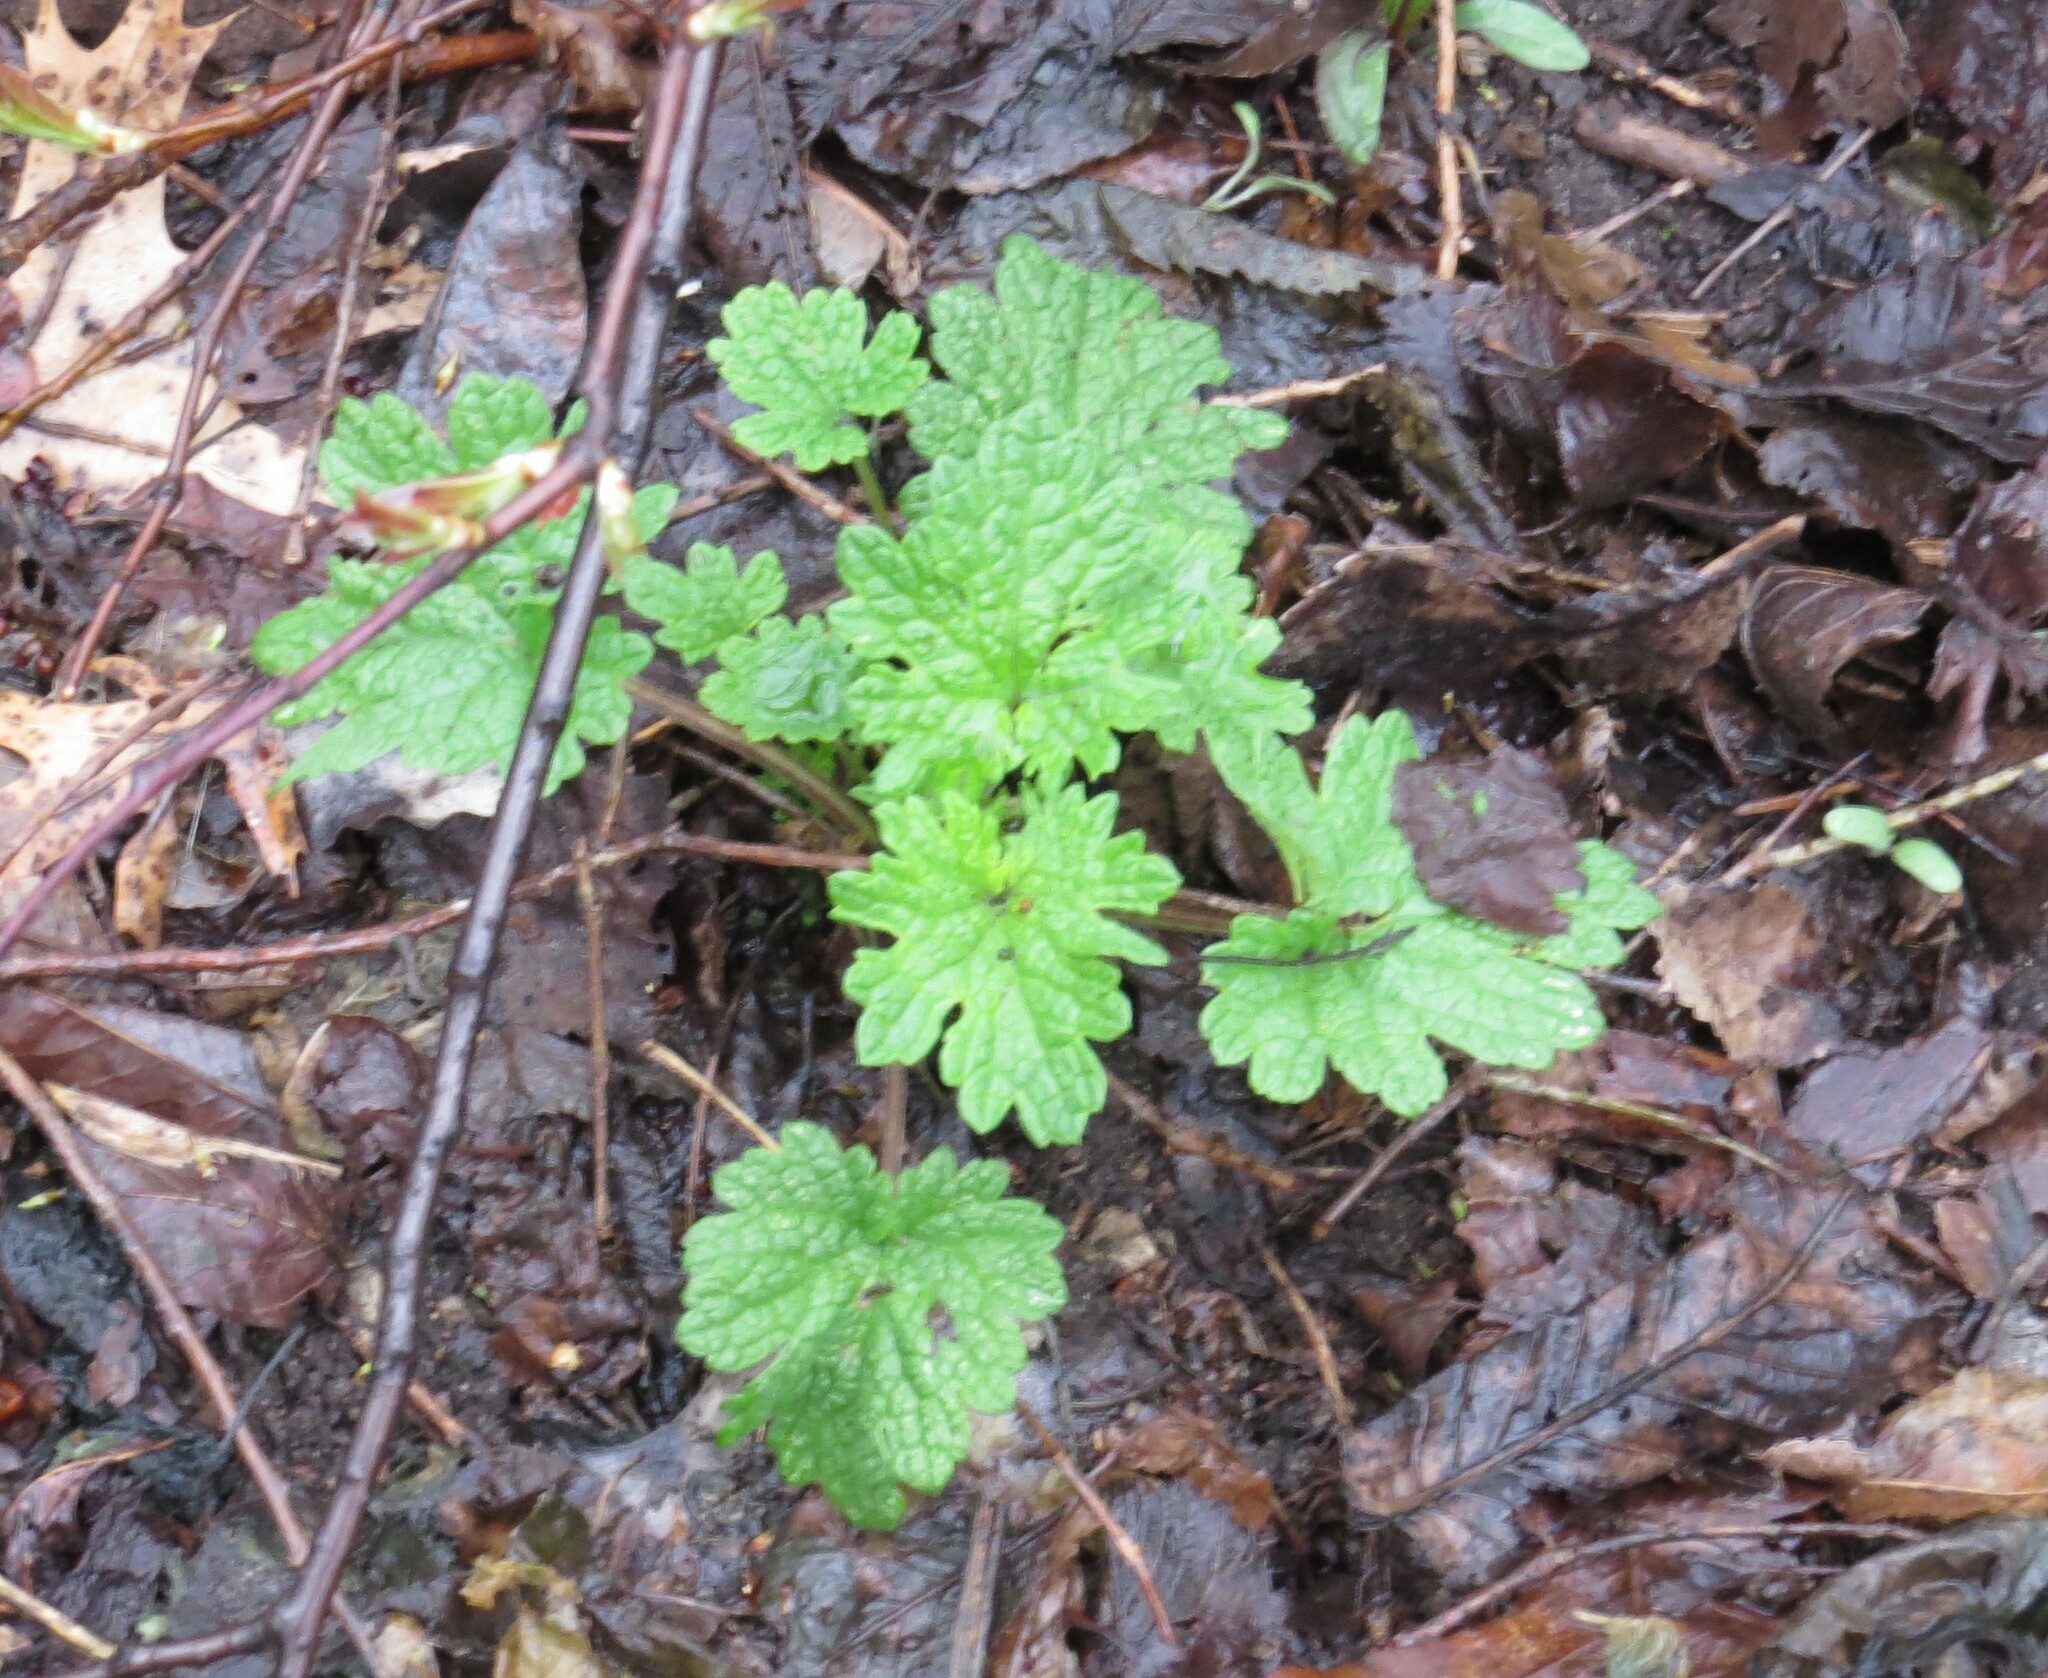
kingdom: Plantae
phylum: Tracheophyta
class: Magnoliopsida
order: Lamiales
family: Lamiaceae
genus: Leonurus
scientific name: Leonurus cardiaca
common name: Motherwort
